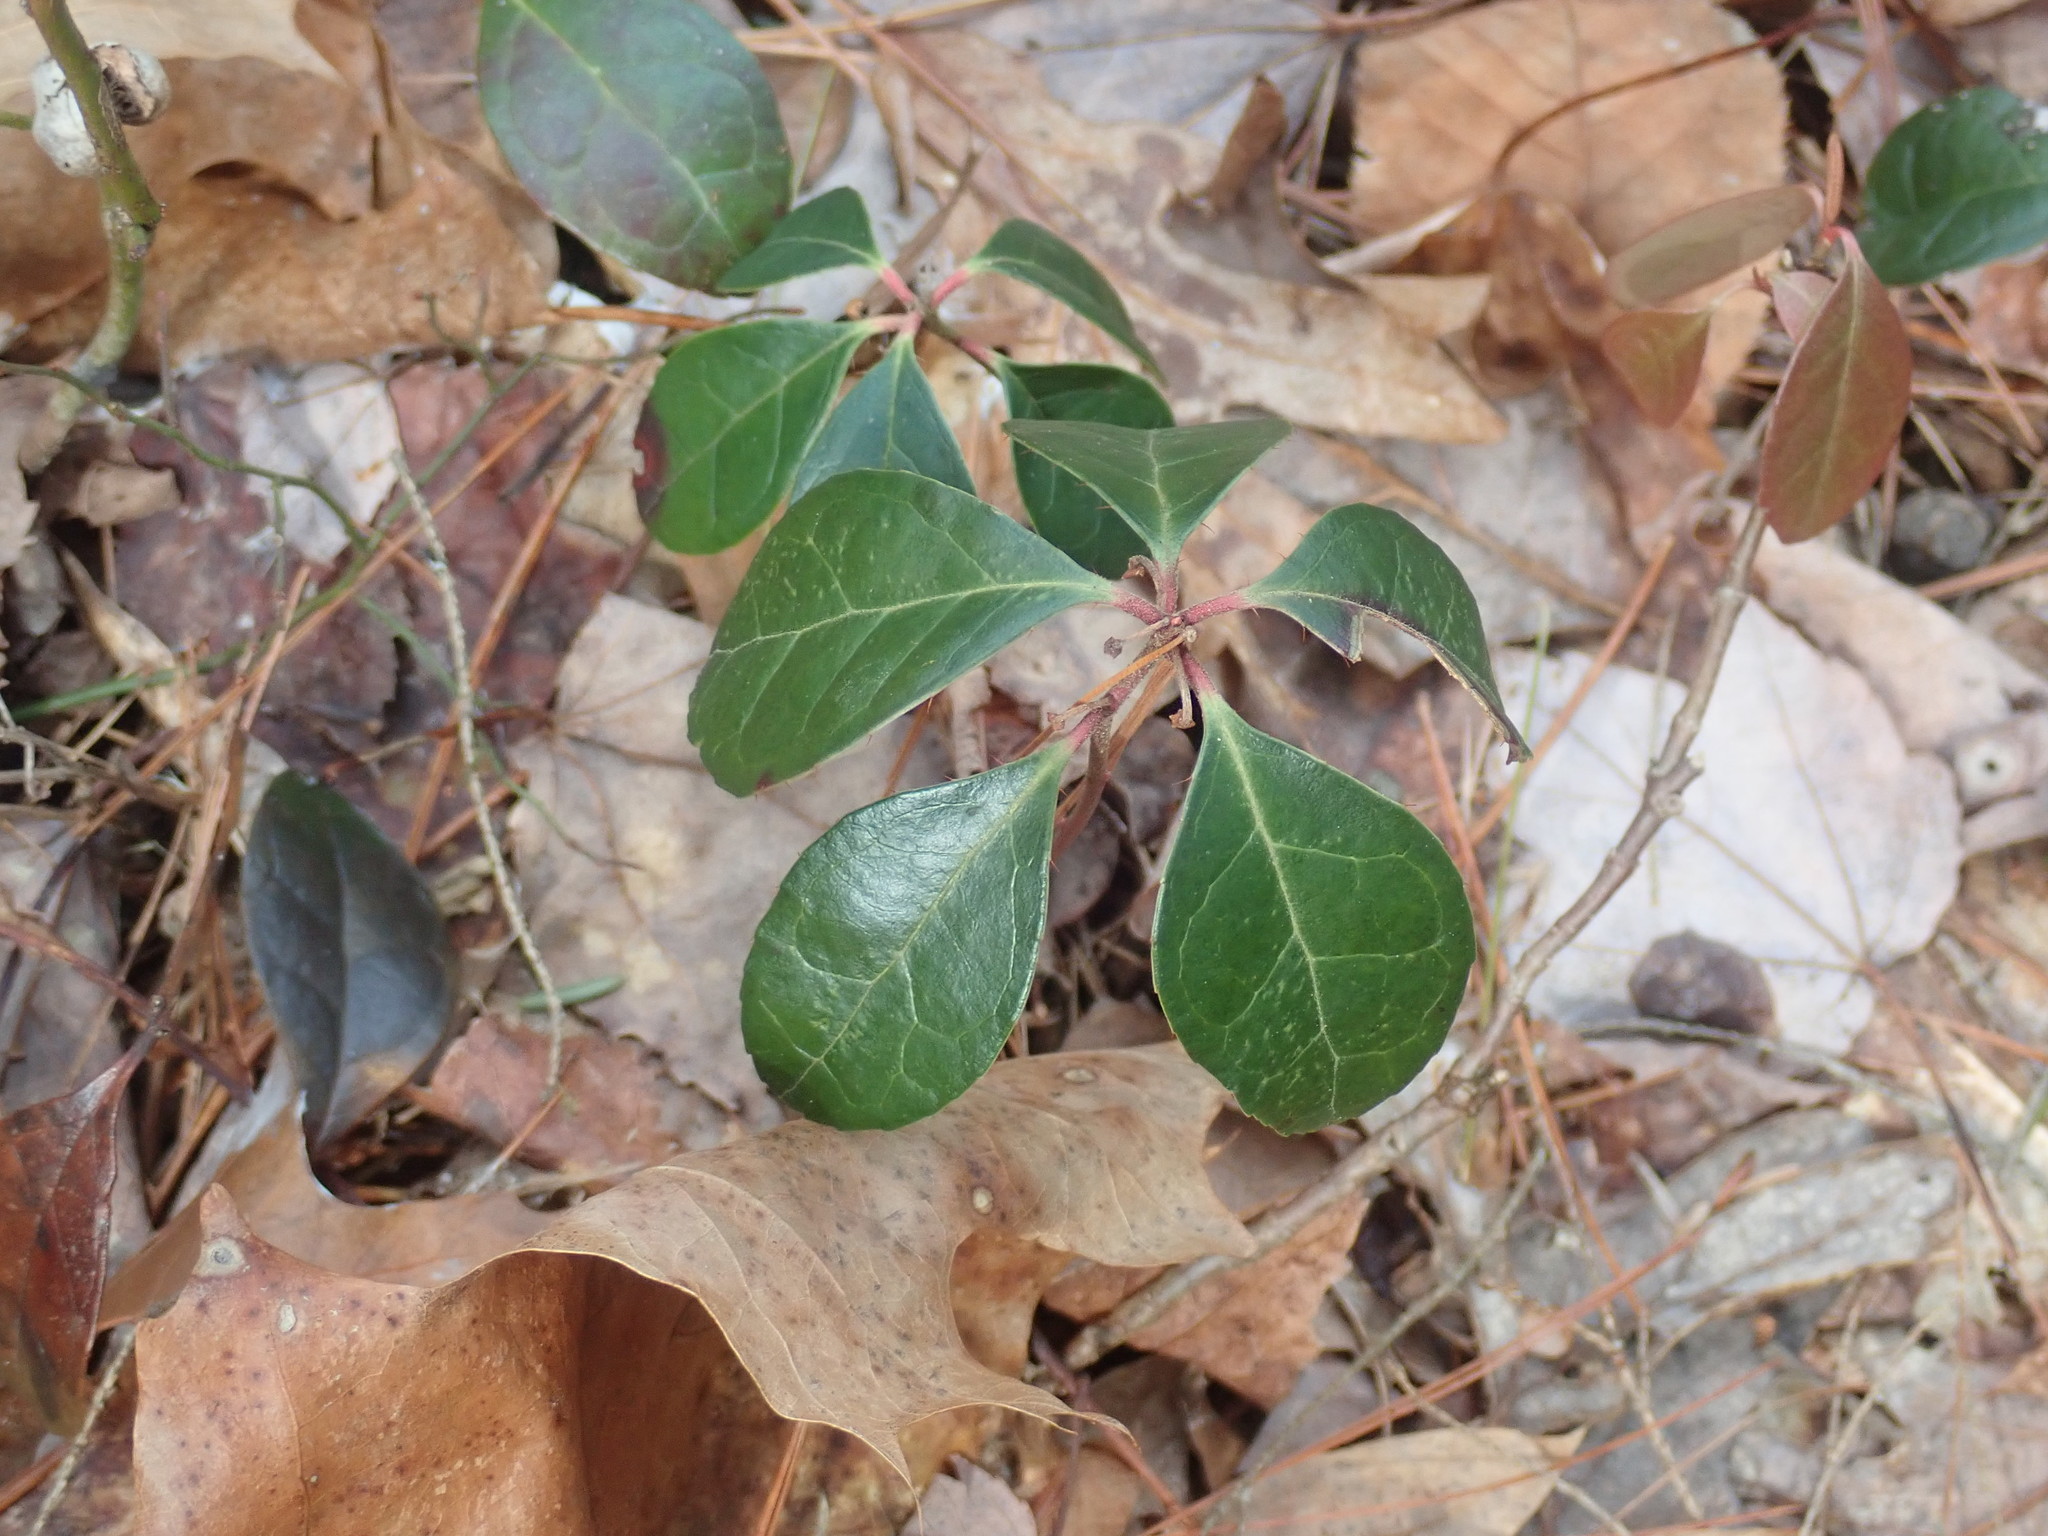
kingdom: Plantae
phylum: Tracheophyta
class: Magnoliopsida
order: Ericales
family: Ericaceae
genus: Gaultheria
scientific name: Gaultheria procumbens
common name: Checkerberry
